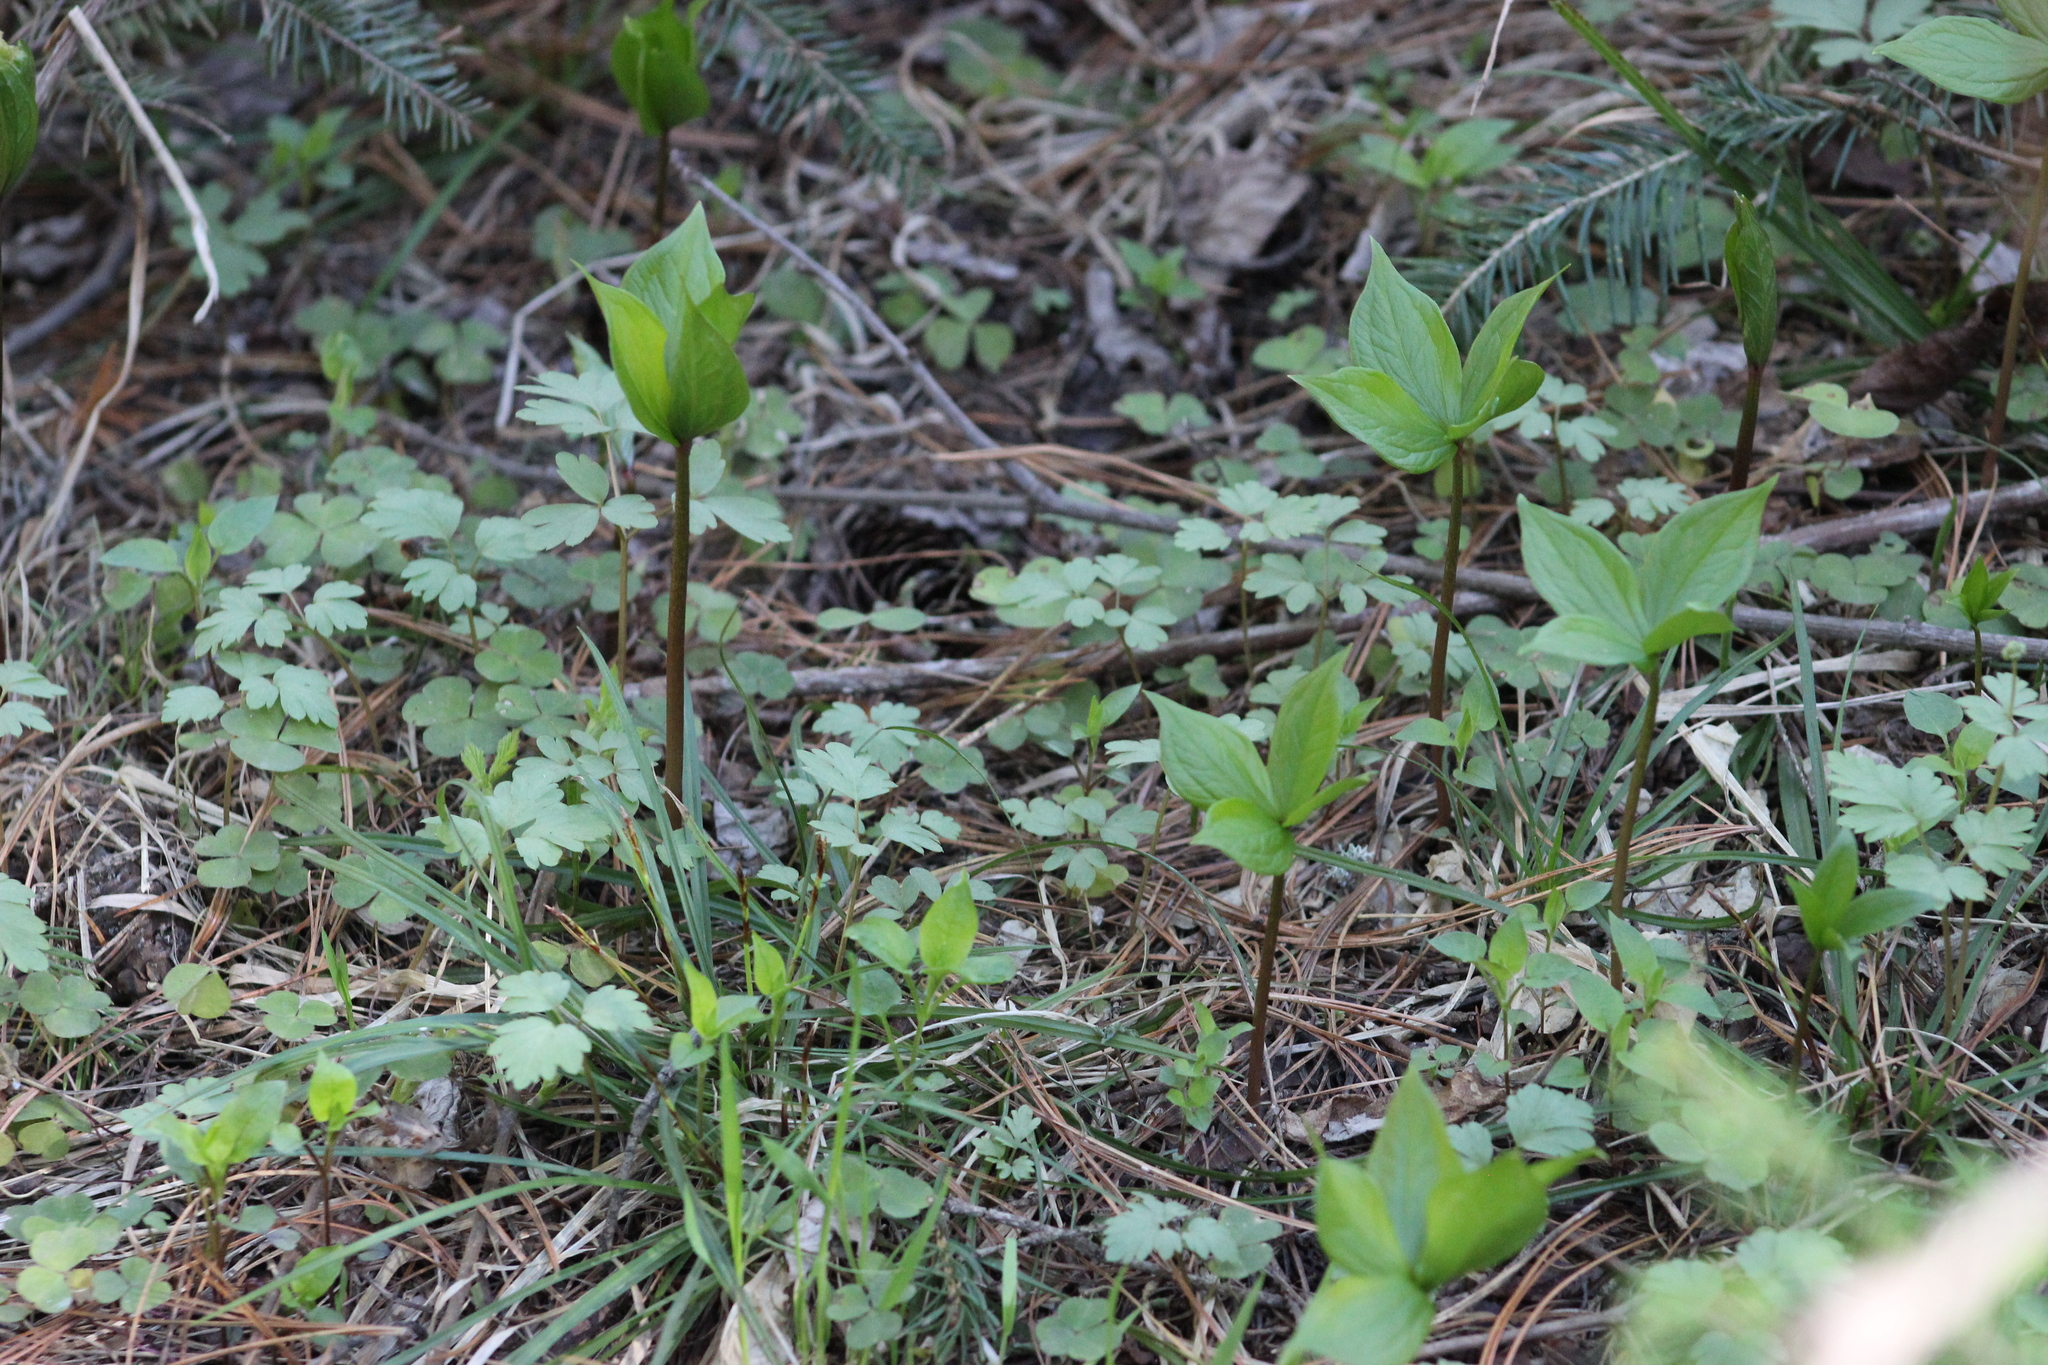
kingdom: Plantae
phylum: Tracheophyta
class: Liliopsida
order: Liliales
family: Melanthiaceae
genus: Paris
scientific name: Paris quadrifolia
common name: Herb-paris
